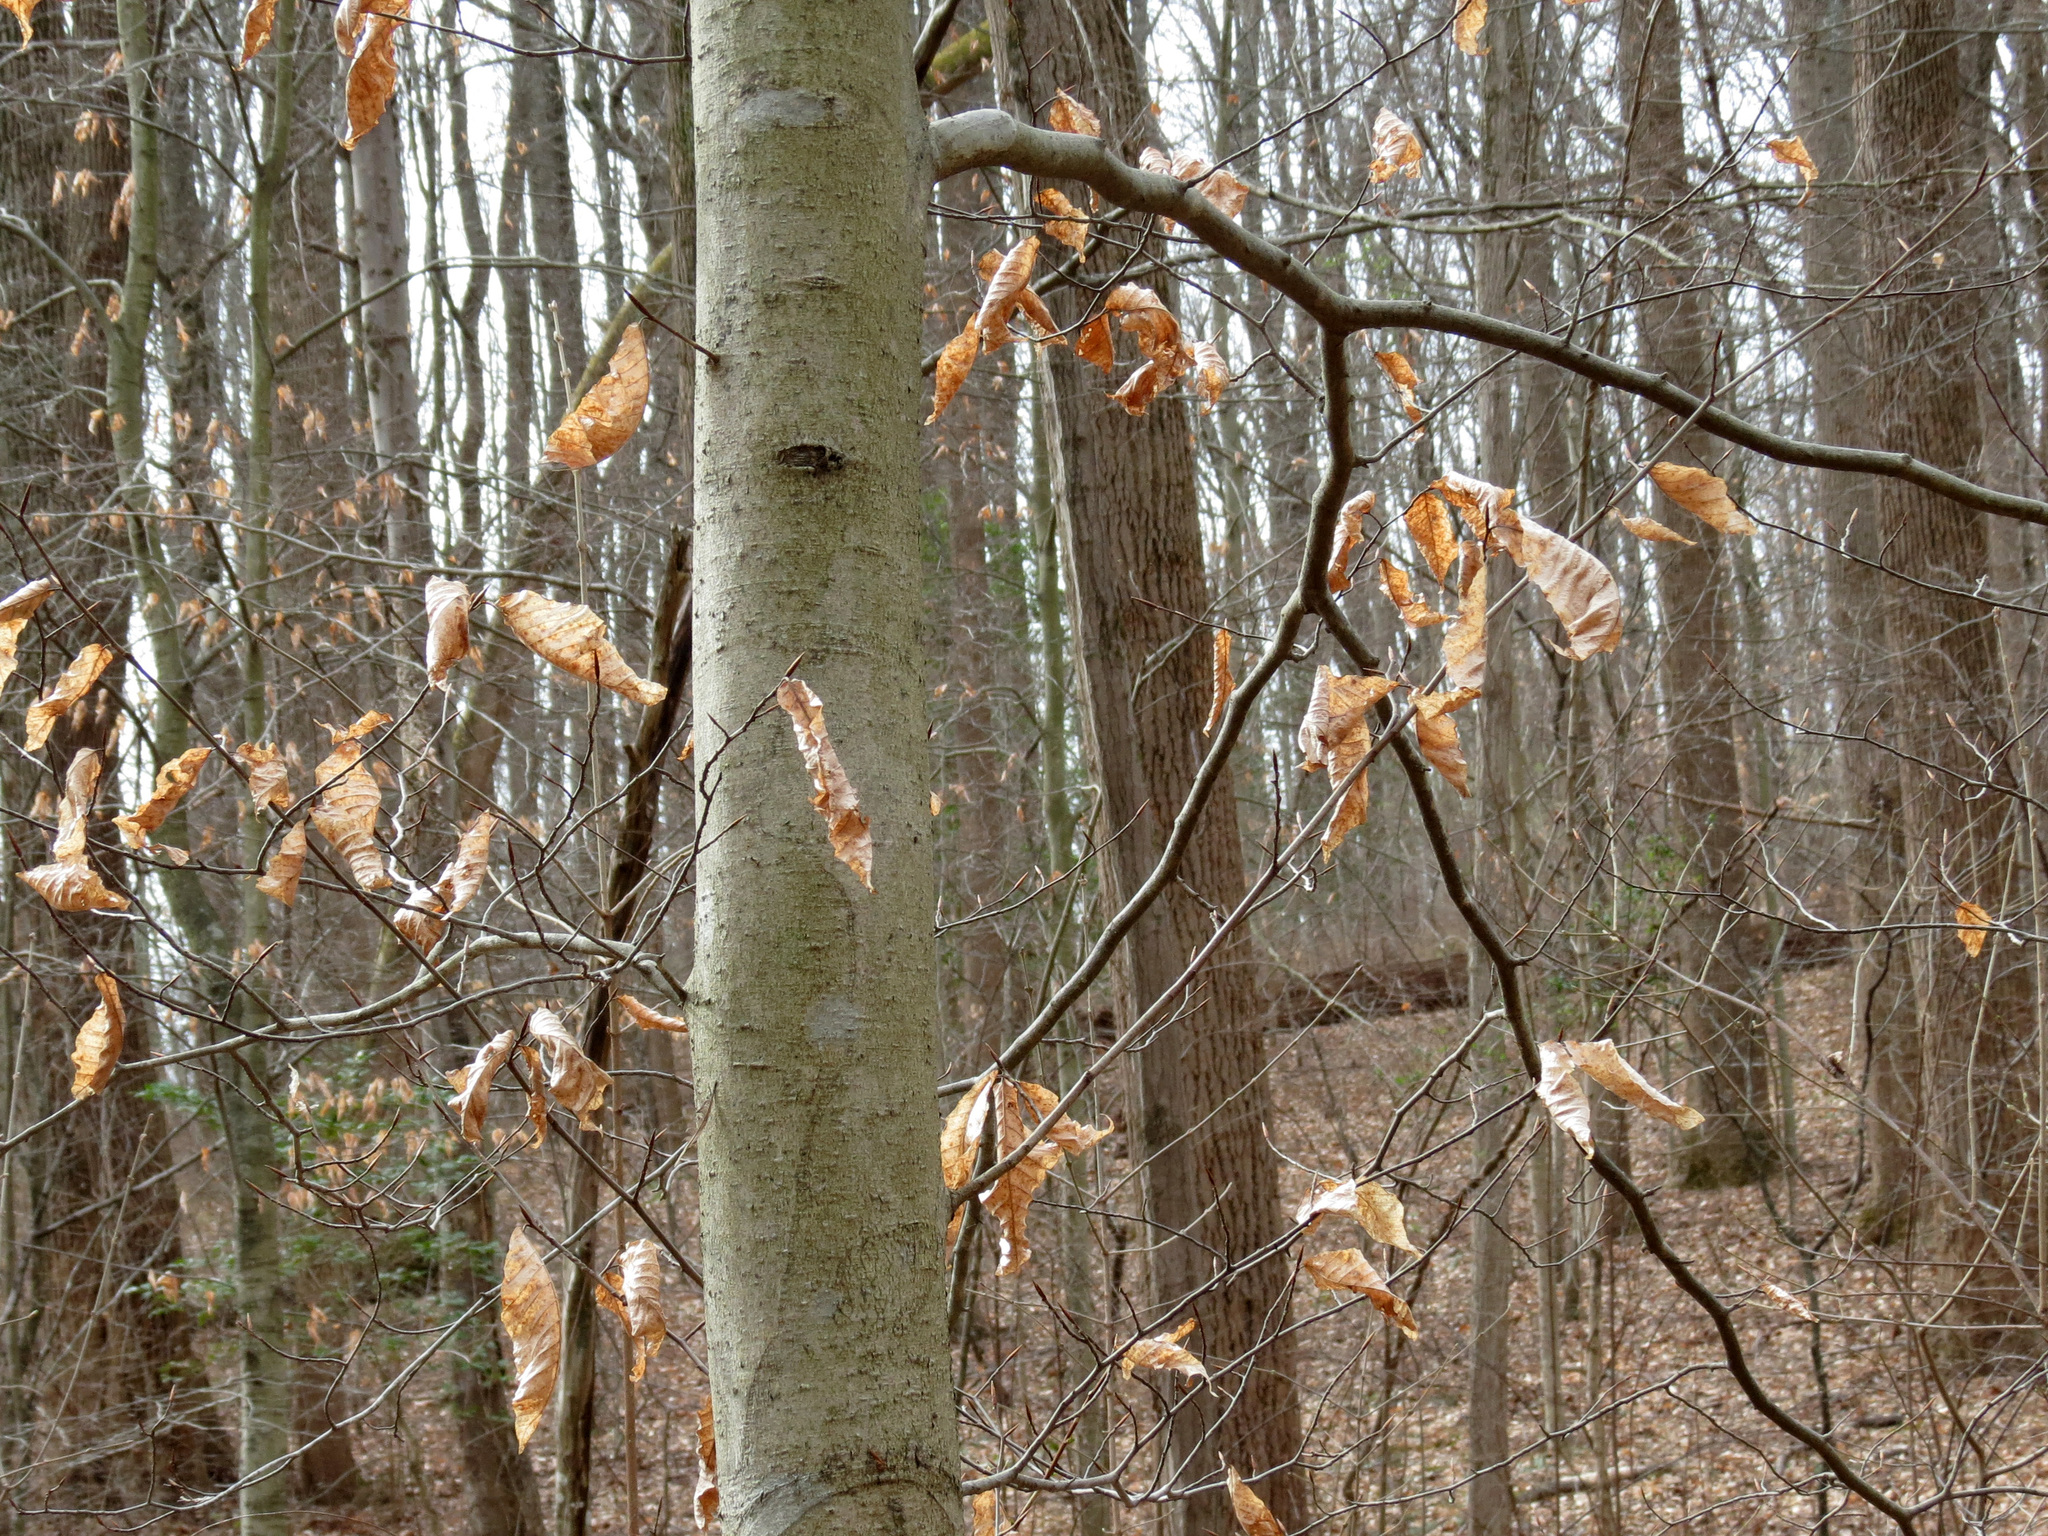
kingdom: Plantae
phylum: Tracheophyta
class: Magnoliopsida
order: Fagales
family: Fagaceae
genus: Fagus
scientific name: Fagus grandifolia
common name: American beech
